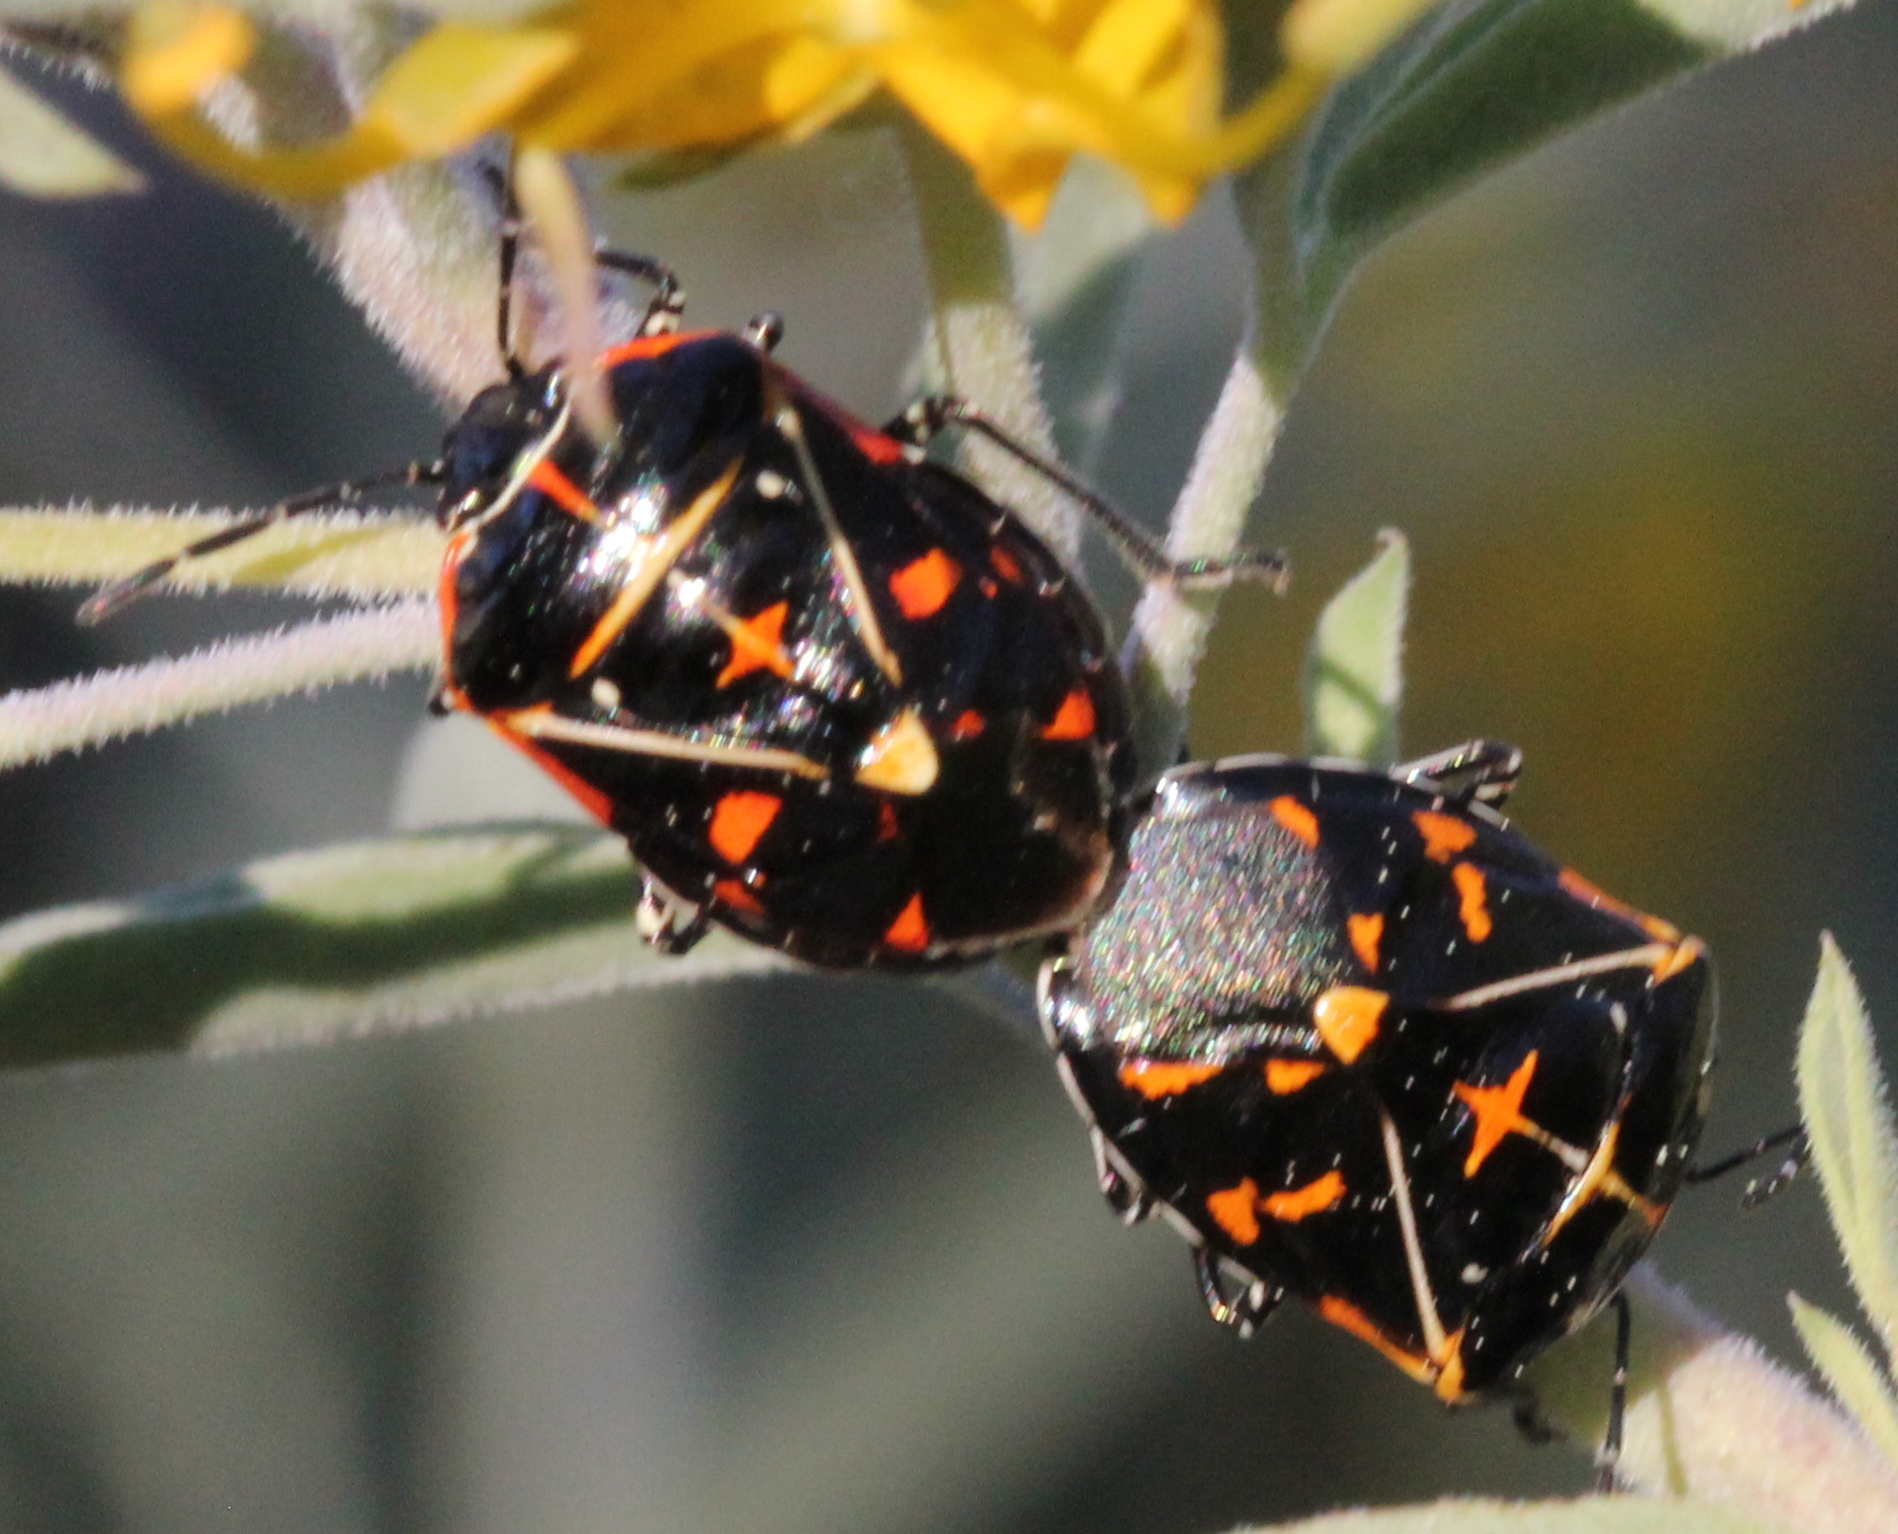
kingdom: Animalia
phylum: Arthropoda
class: Insecta
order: Hemiptera
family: Pentatomidae
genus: Murgantia
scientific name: Murgantia histrionica
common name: Harlequin bug
